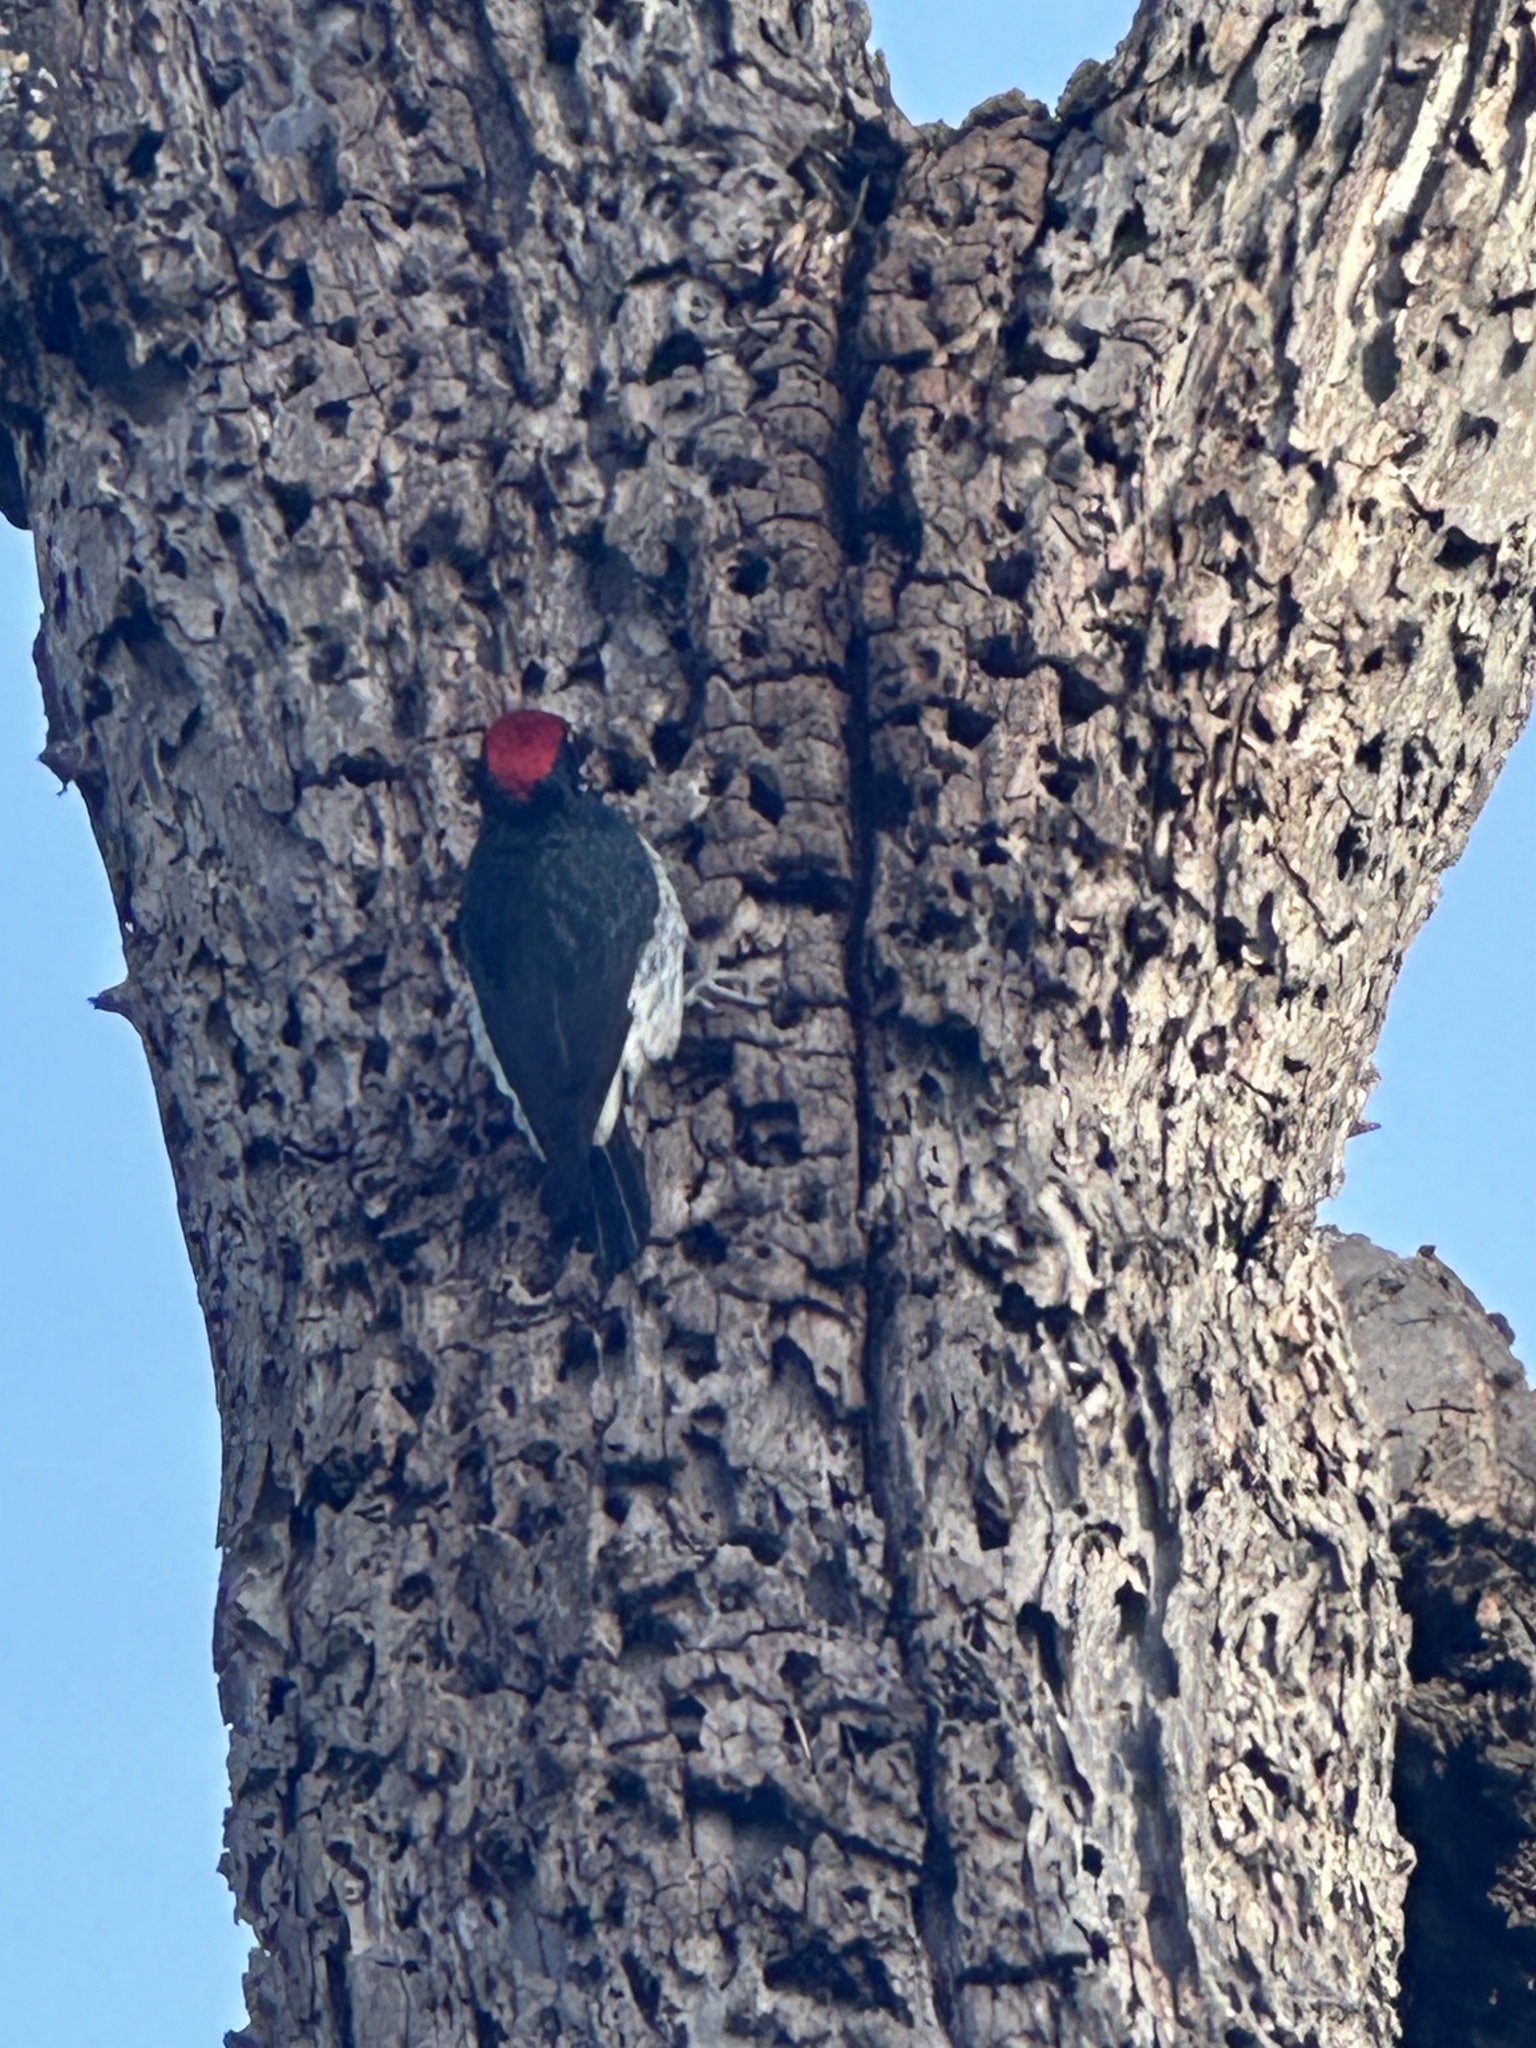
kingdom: Animalia
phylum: Chordata
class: Aves
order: Piciformes
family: Picidae
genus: Melanerpes
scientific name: Melanerpes formicivorus
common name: Acorn woodpecker
